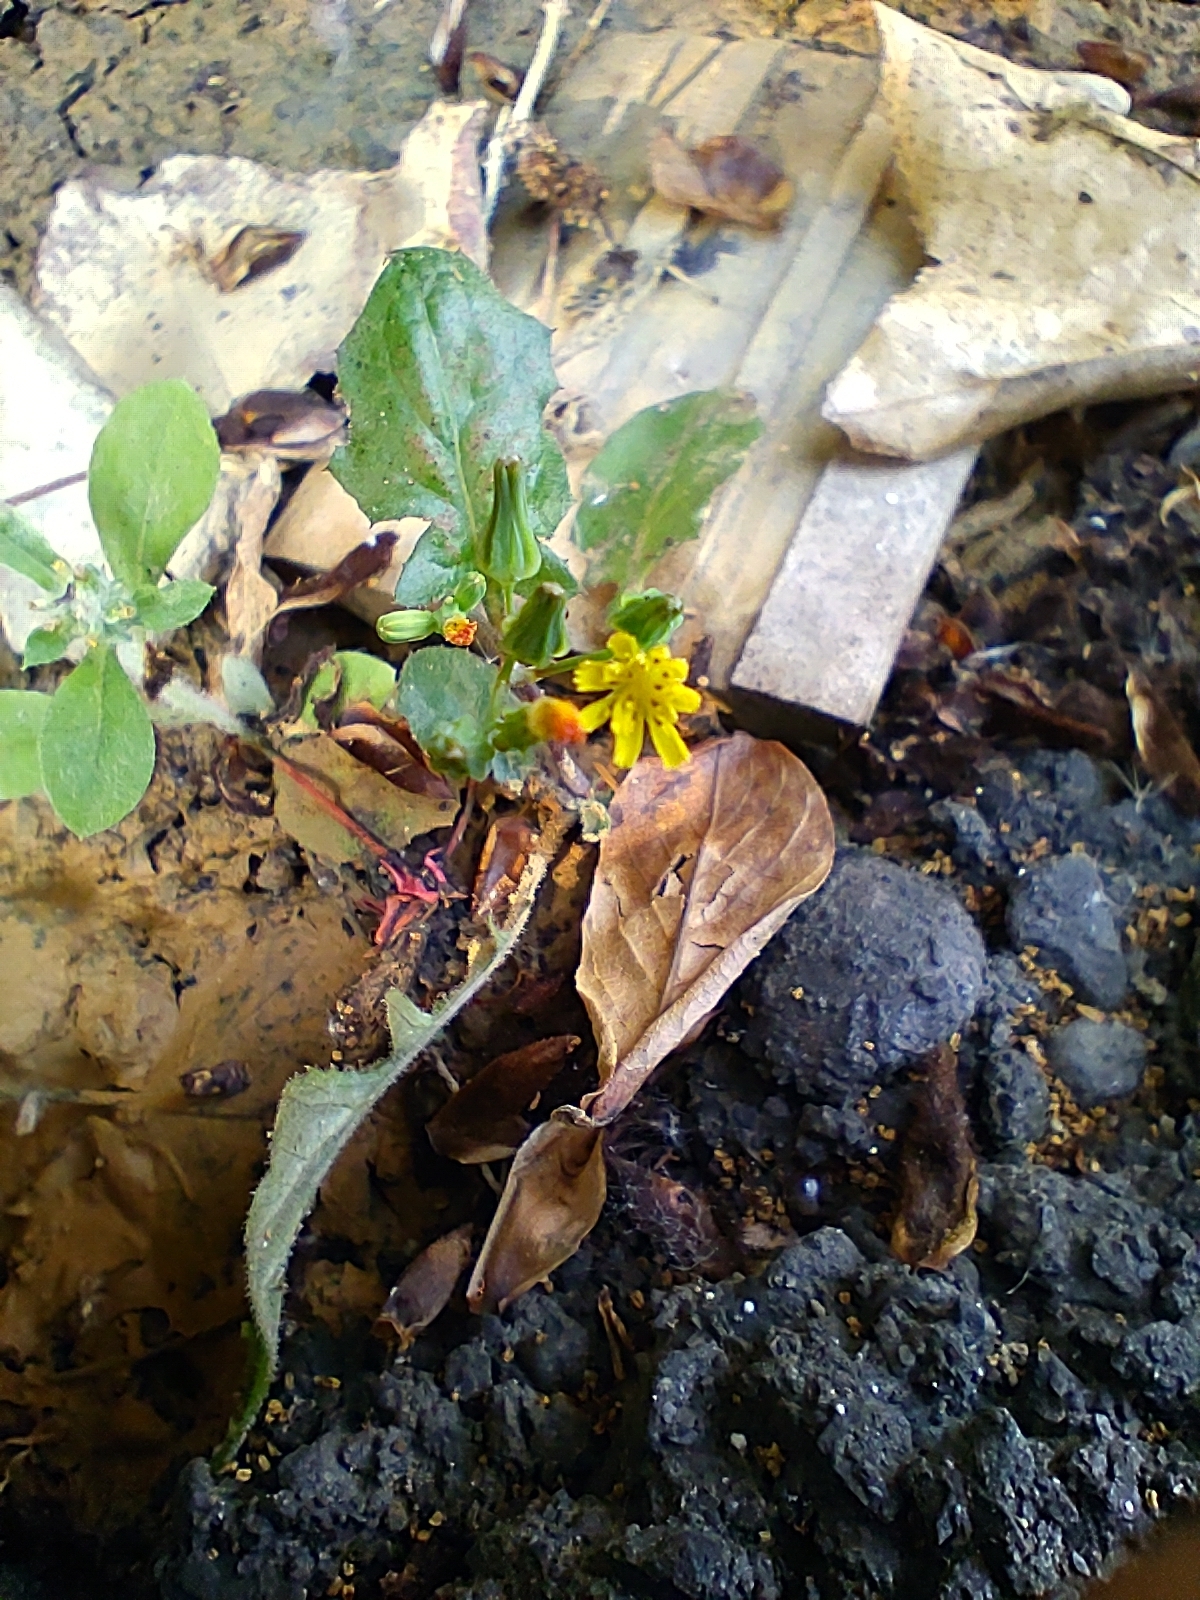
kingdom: Plantae
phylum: Tracheophyta
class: Magnoliopsida
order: Asterales
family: Asteraceae
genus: Youngia
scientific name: Youngia japonica
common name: Oriental false hawksbeard
